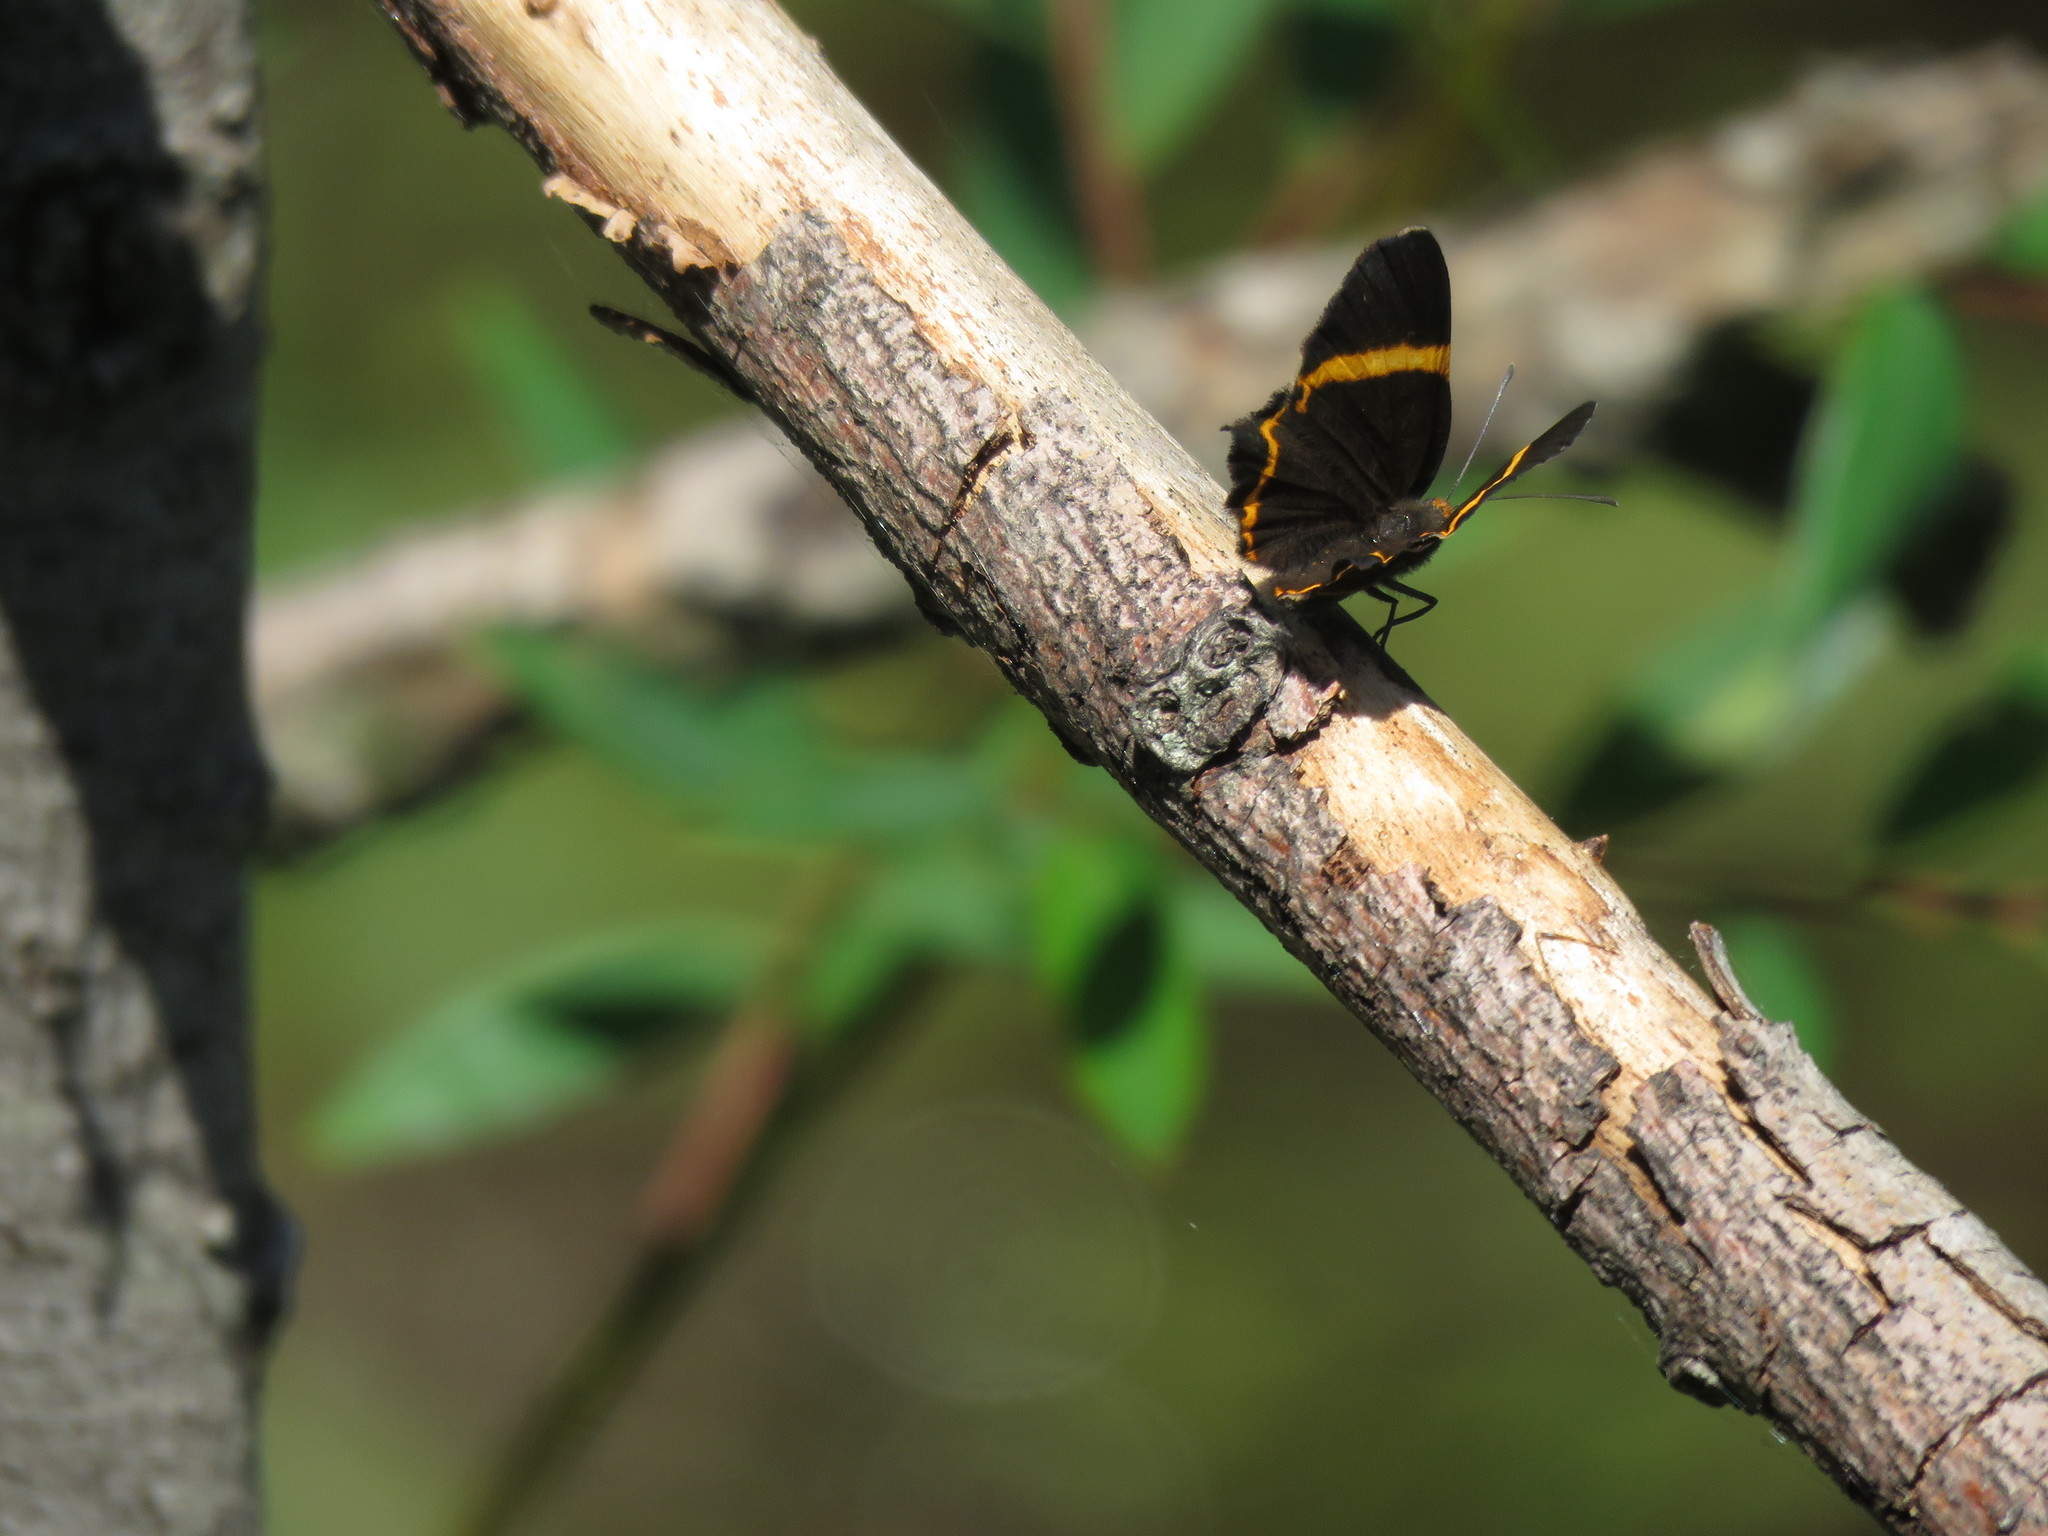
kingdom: Animalia
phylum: Arthropoda
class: Insecta
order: Lepidoptera
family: Riodinidae
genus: Riodina
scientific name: Riodina lysippoides
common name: Little dancer metalmark
